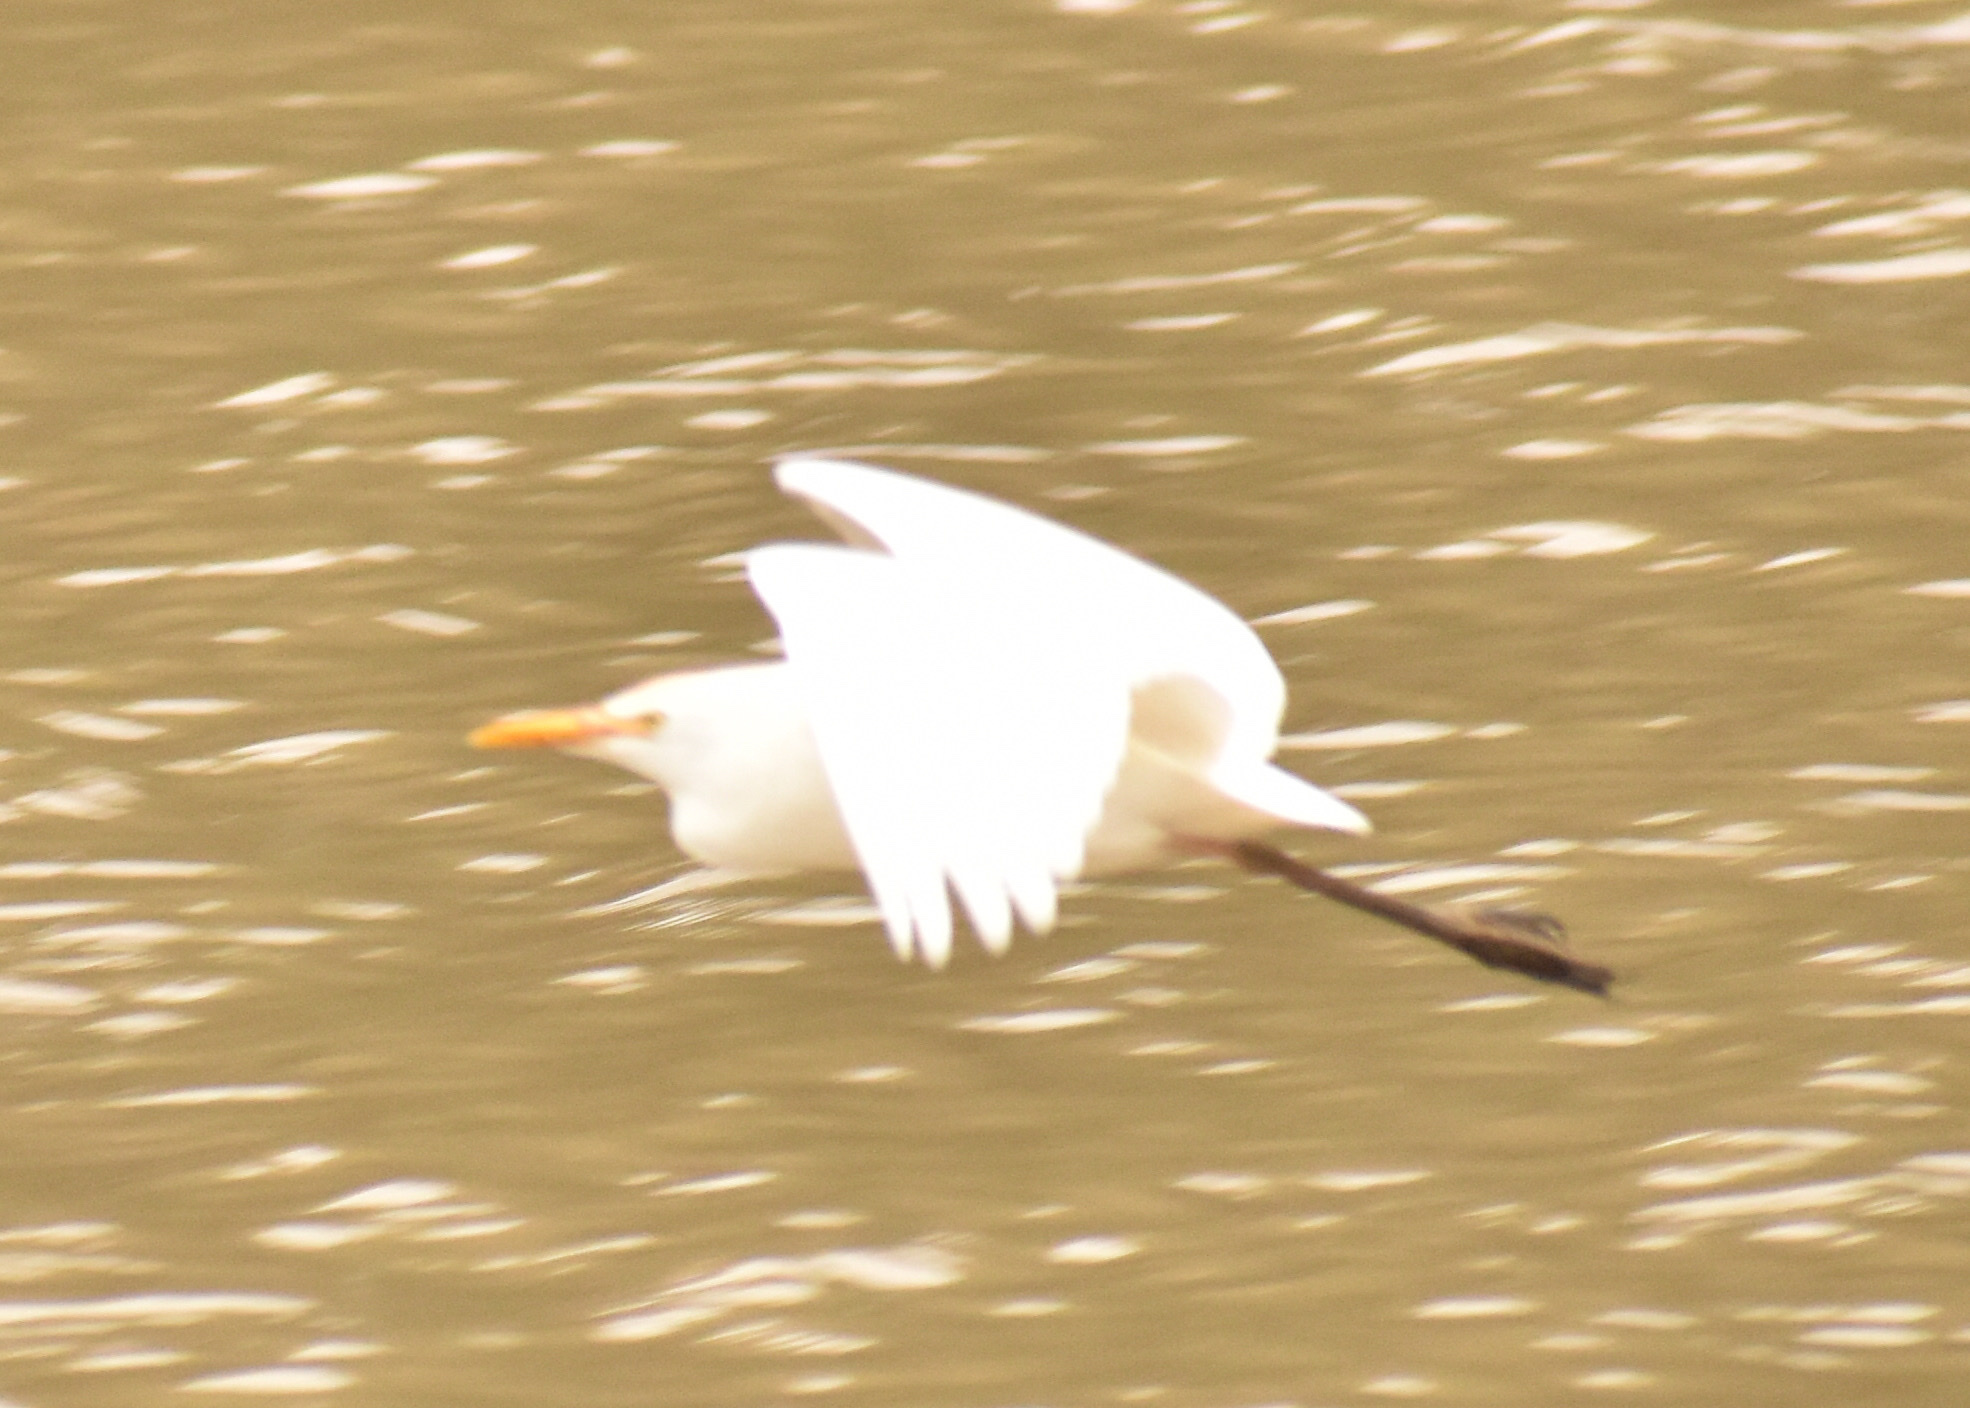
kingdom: Animalia
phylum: Chordata
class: Aves
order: Pelecaniformes
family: Ardeidae
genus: Bubulcus
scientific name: Bubulcus ibis
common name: Cattle egret
